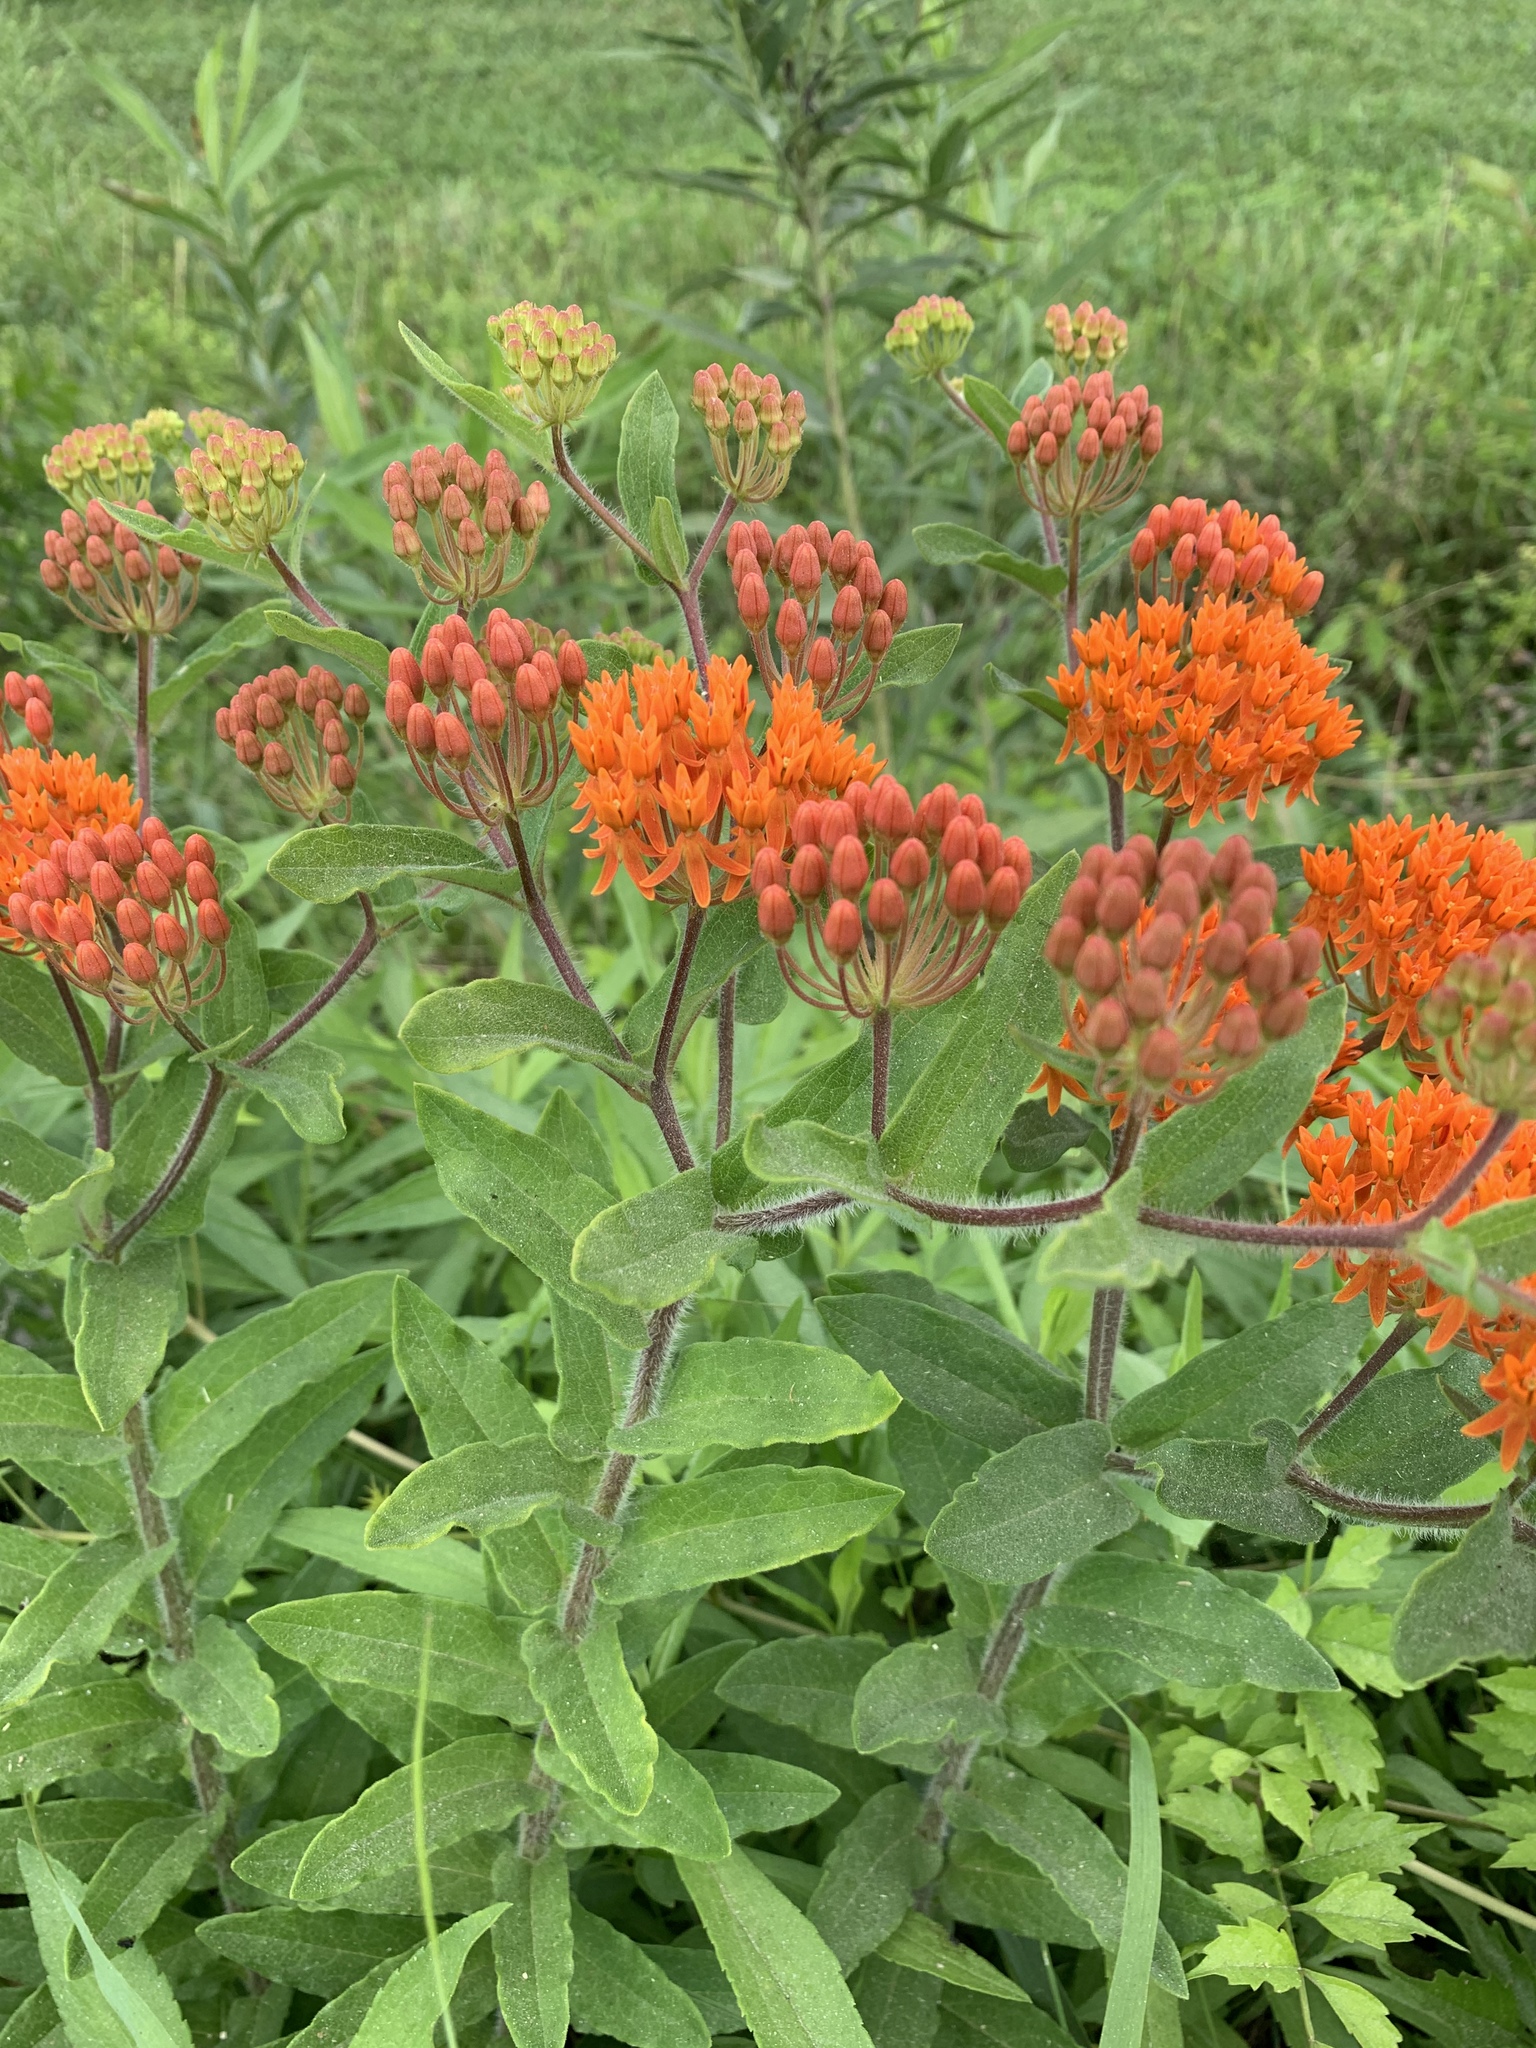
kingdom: Plantae
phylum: Tracheophyta
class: Magnoliopsida
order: Gentianales
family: Apocynaceae
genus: Asclepias
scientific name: Asclepias tuberosa
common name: Butterfly milkweed
